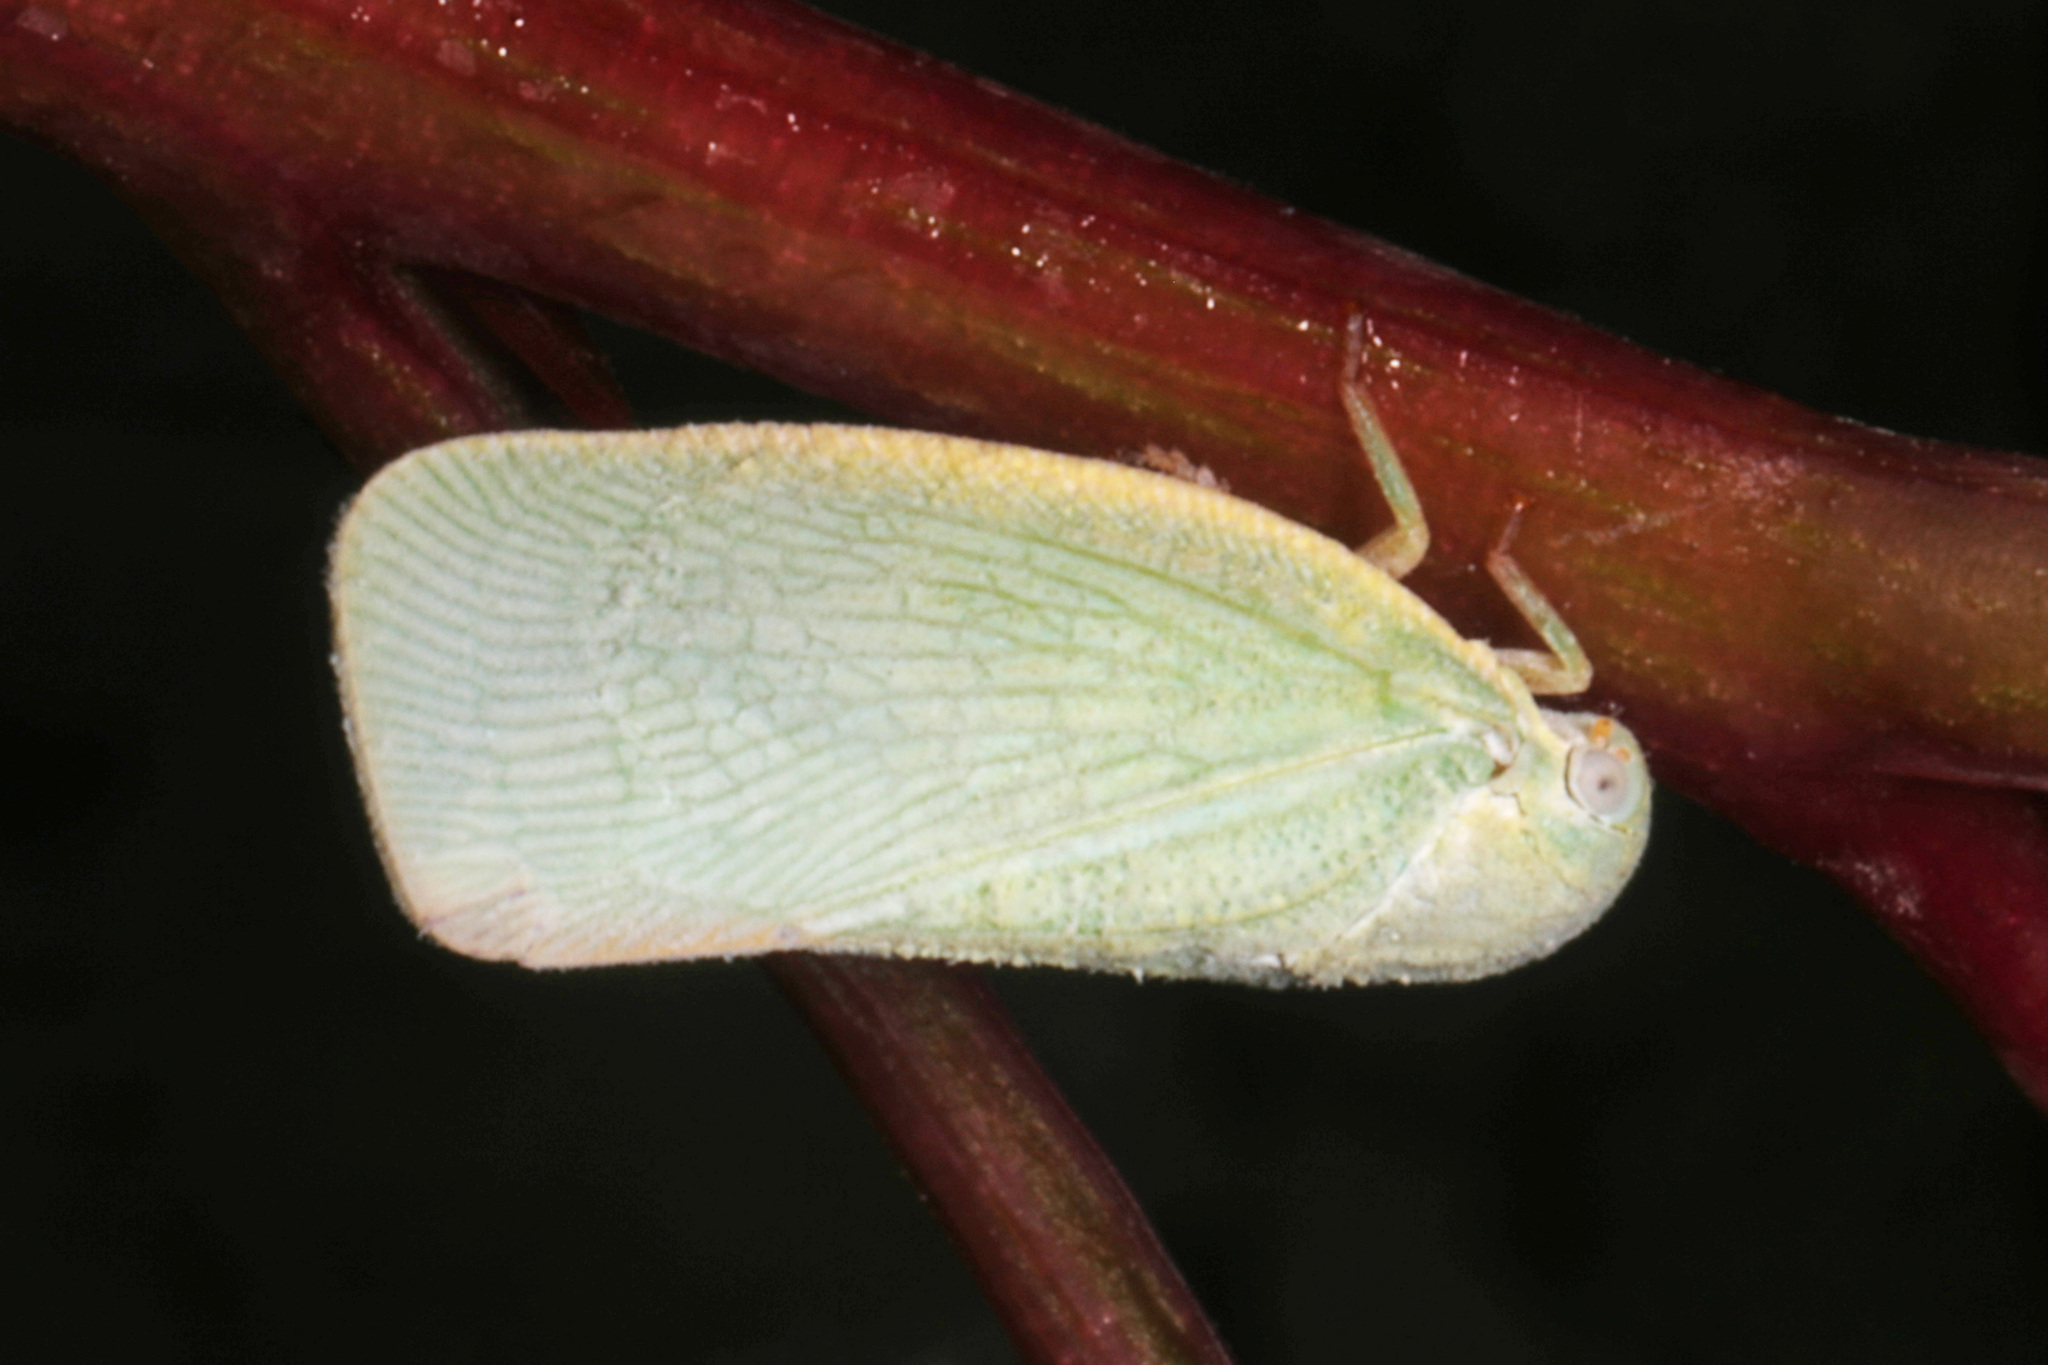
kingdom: Animalia
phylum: Arthropoda
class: Insecta
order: Hemiptera
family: Flatidae
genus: Flatormenis
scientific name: Flatormenis proxima
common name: Northern flatid planthopper
